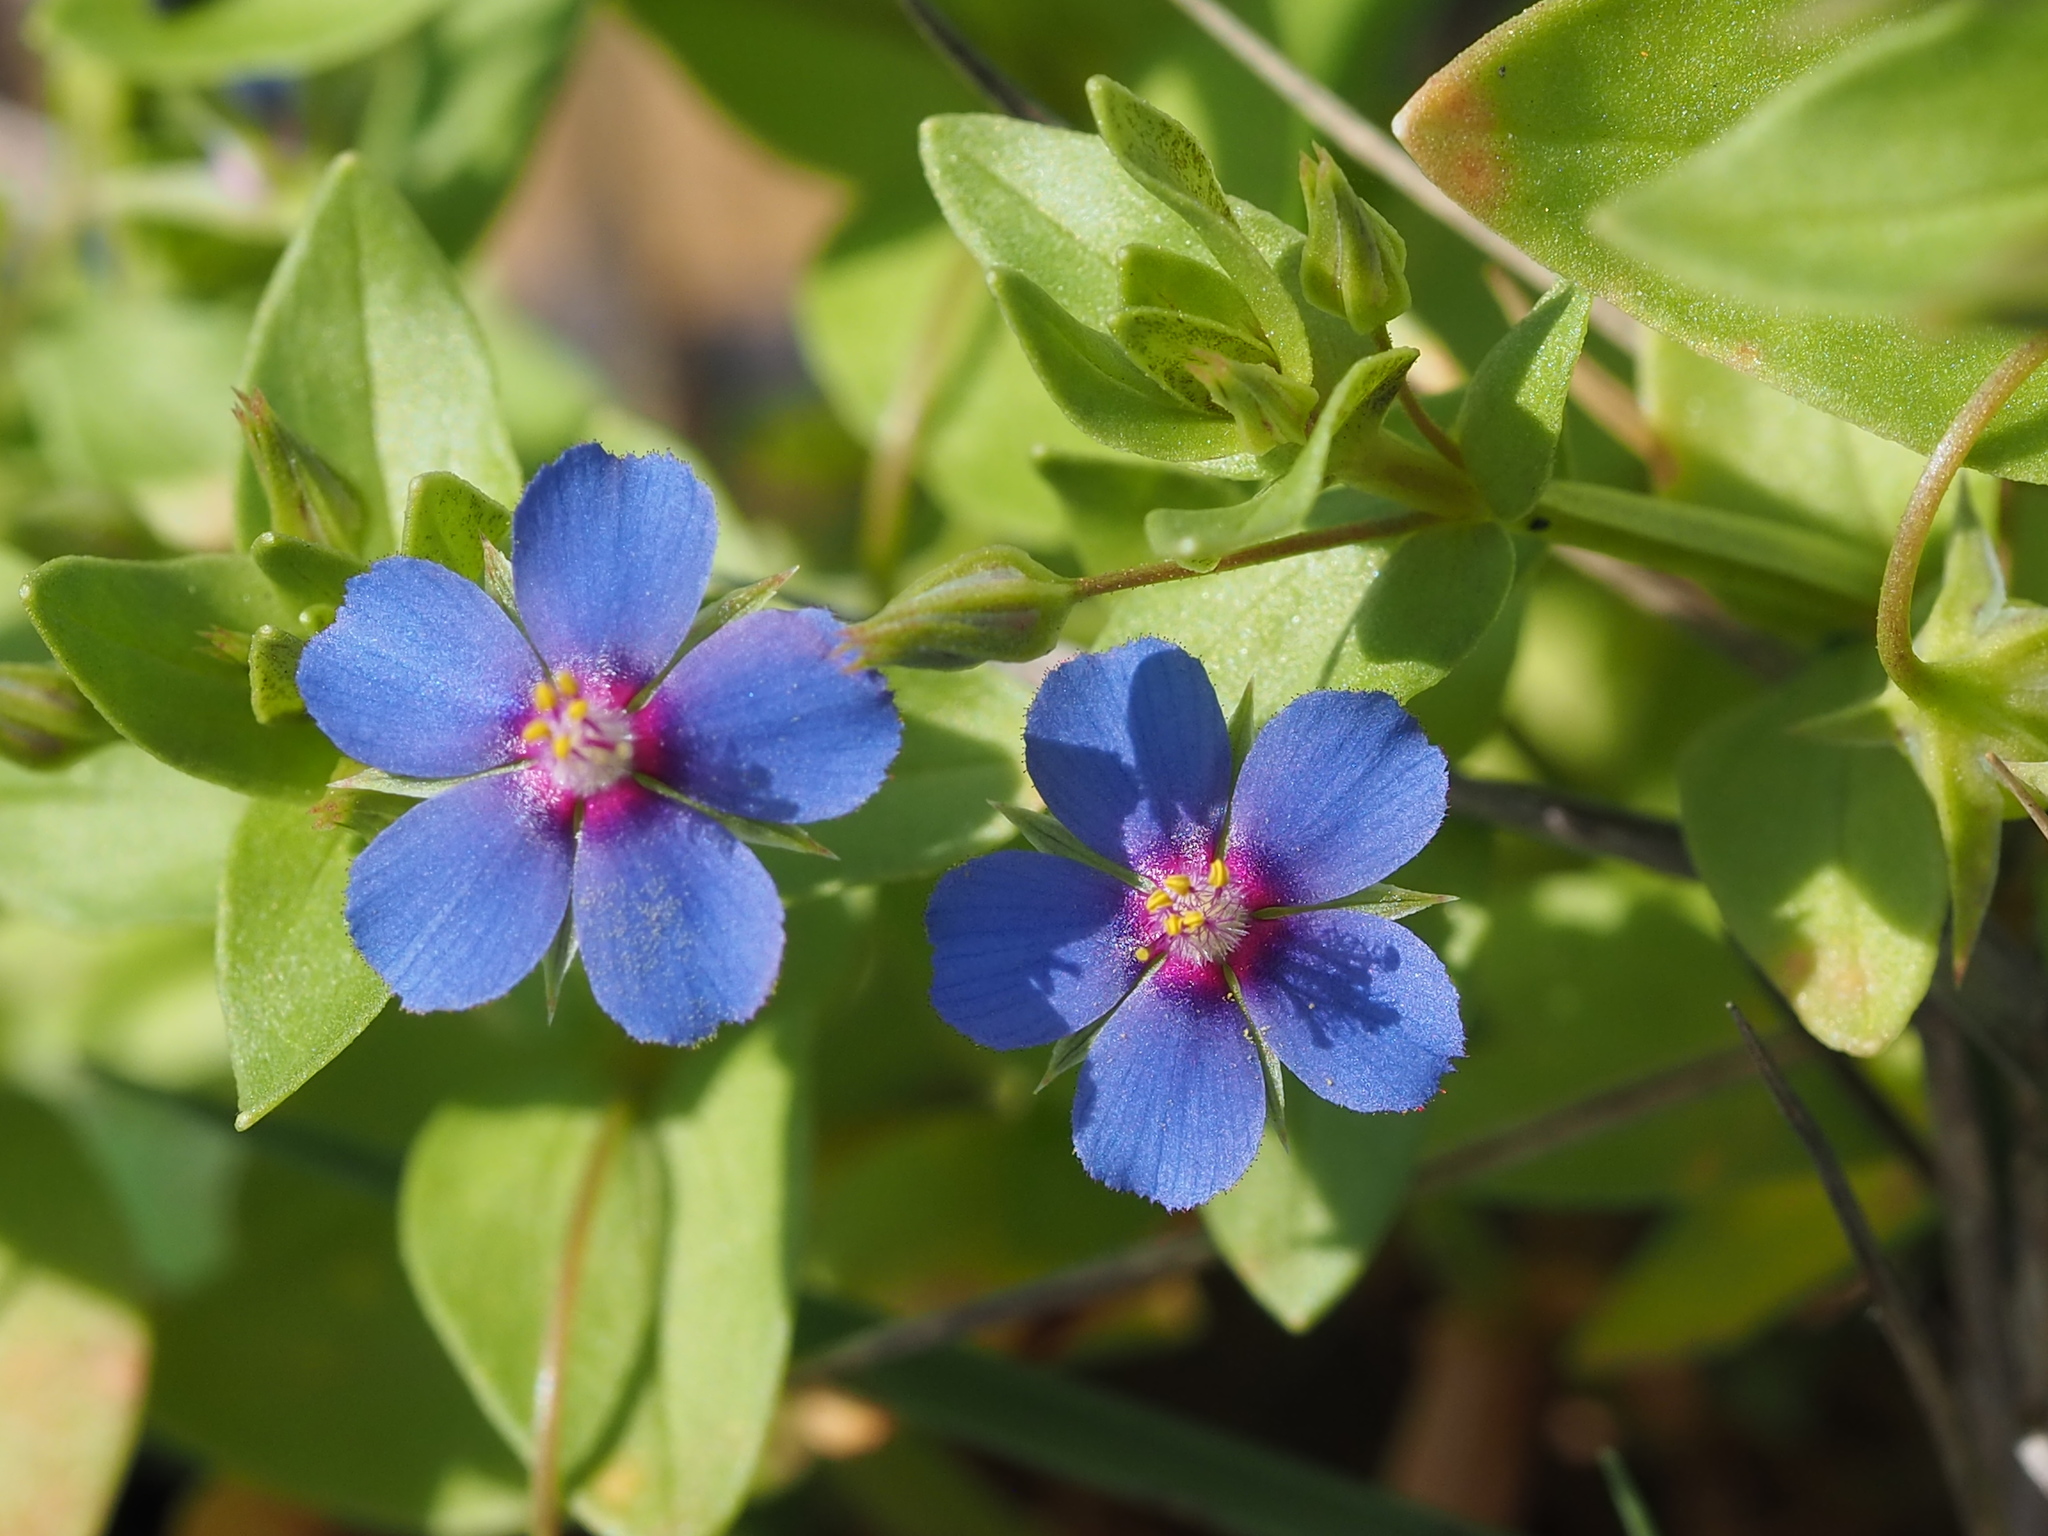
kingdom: Plantae
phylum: Tracheophyta
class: Magnoliopsida
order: Ericales
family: Primulaceae
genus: Lysimachia
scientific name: Lysimachia loeflingii
